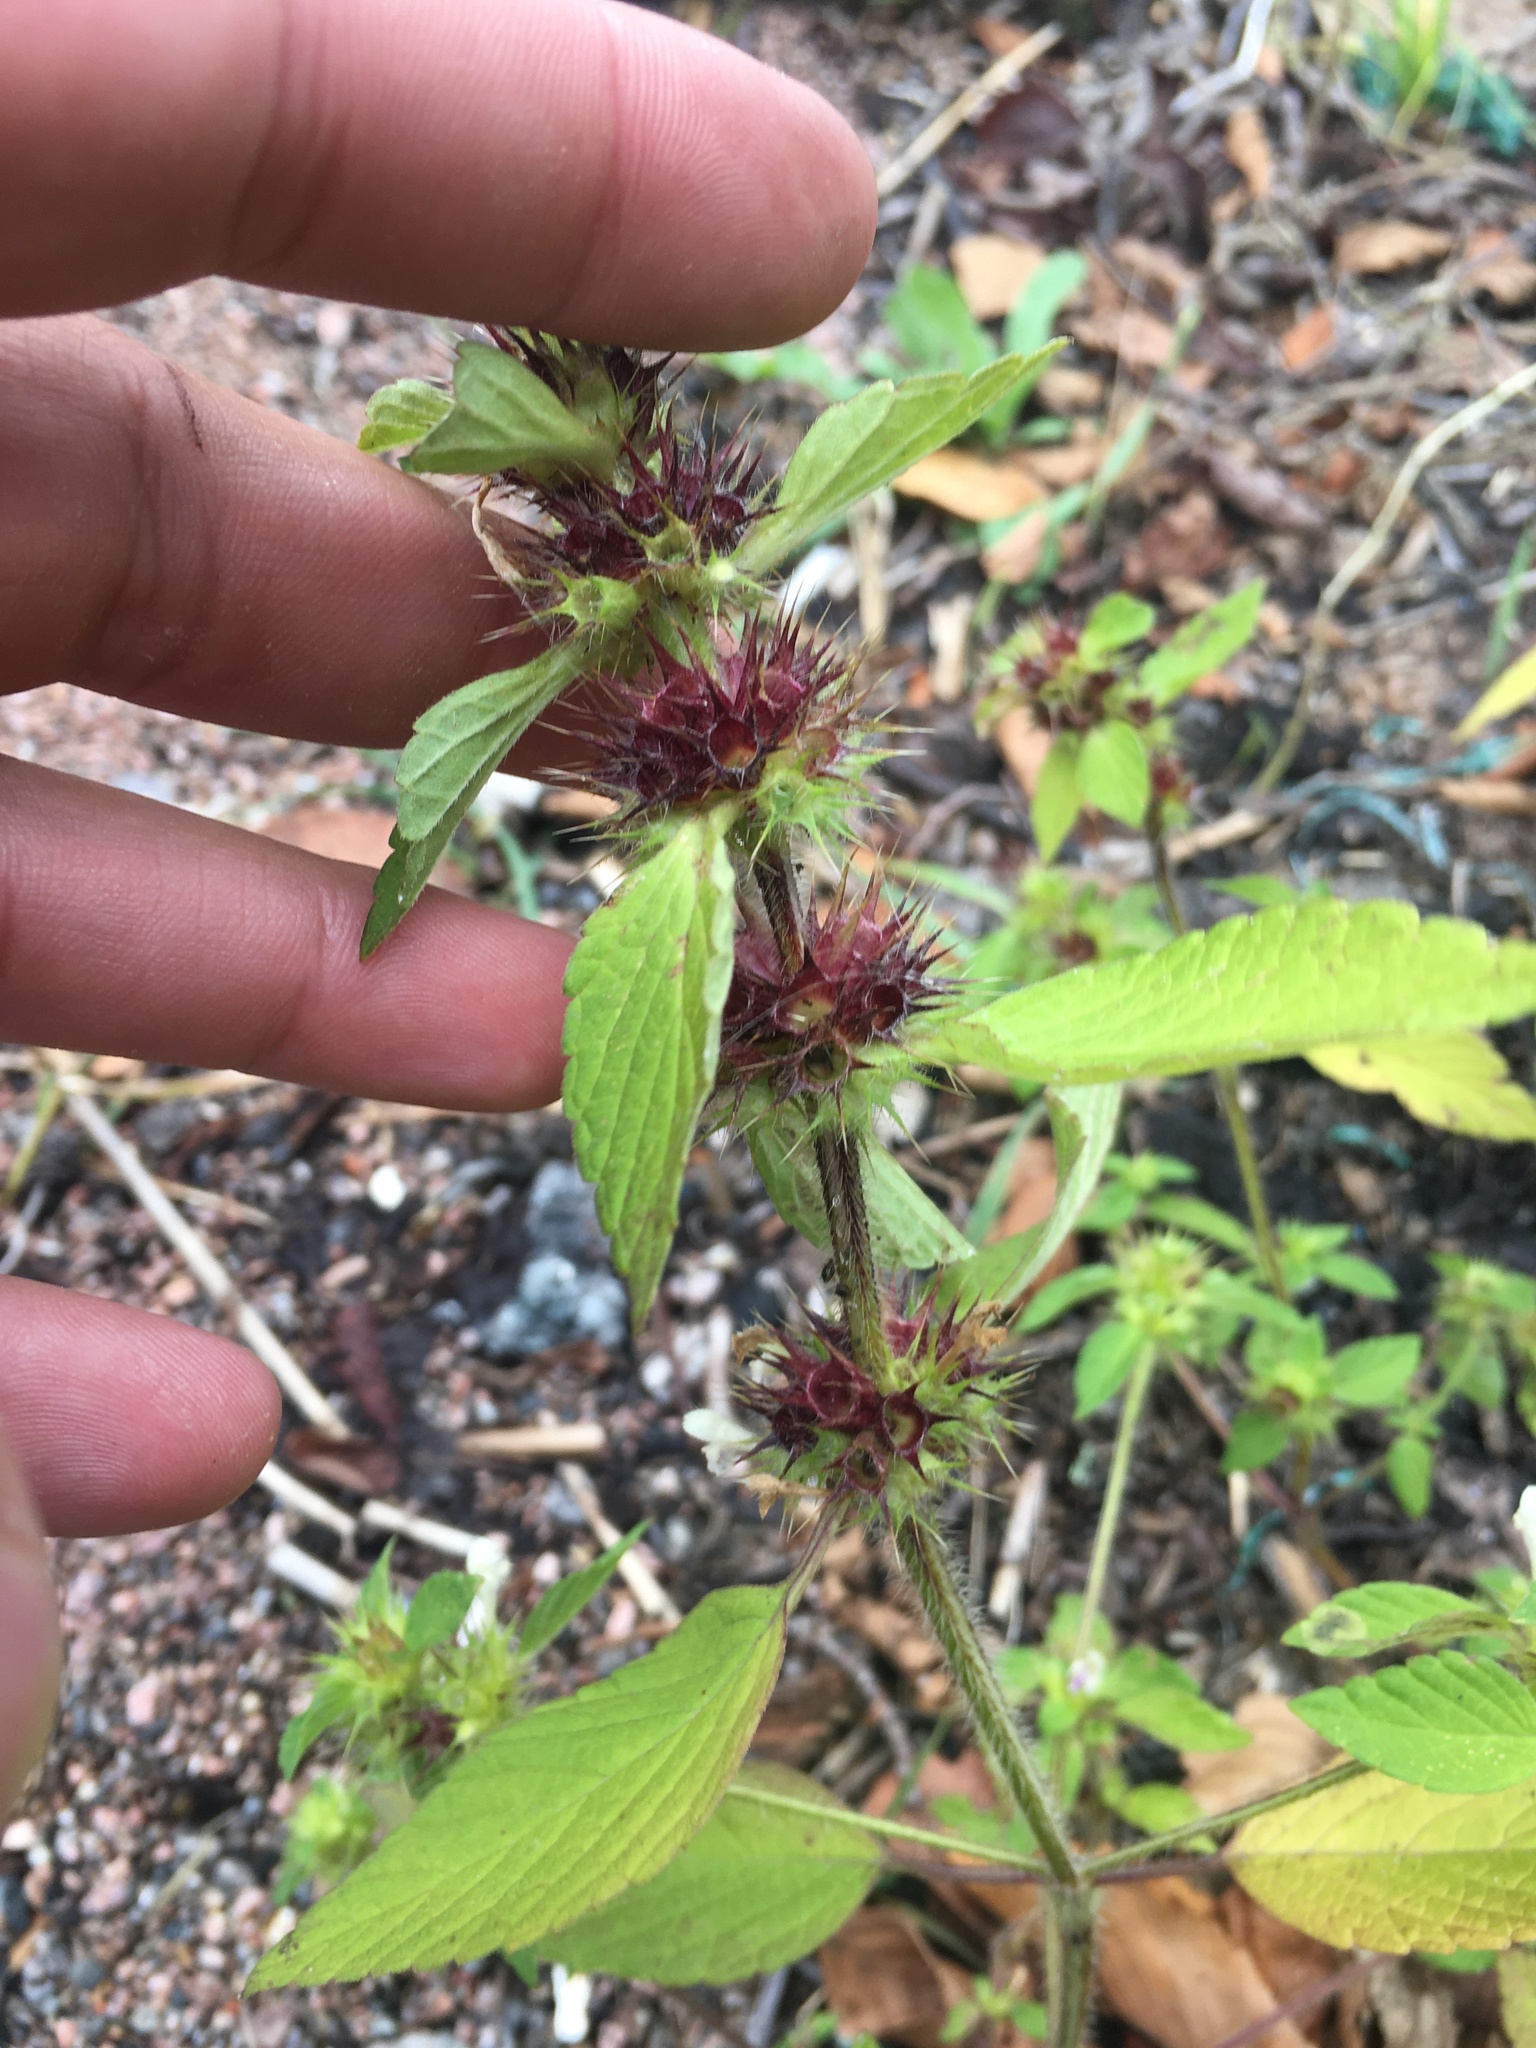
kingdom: Plantae
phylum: Tracheophyta
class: Magnoliopsida
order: Lamiales
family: Lamiaceae
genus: Galeopsis
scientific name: Galeopsis
